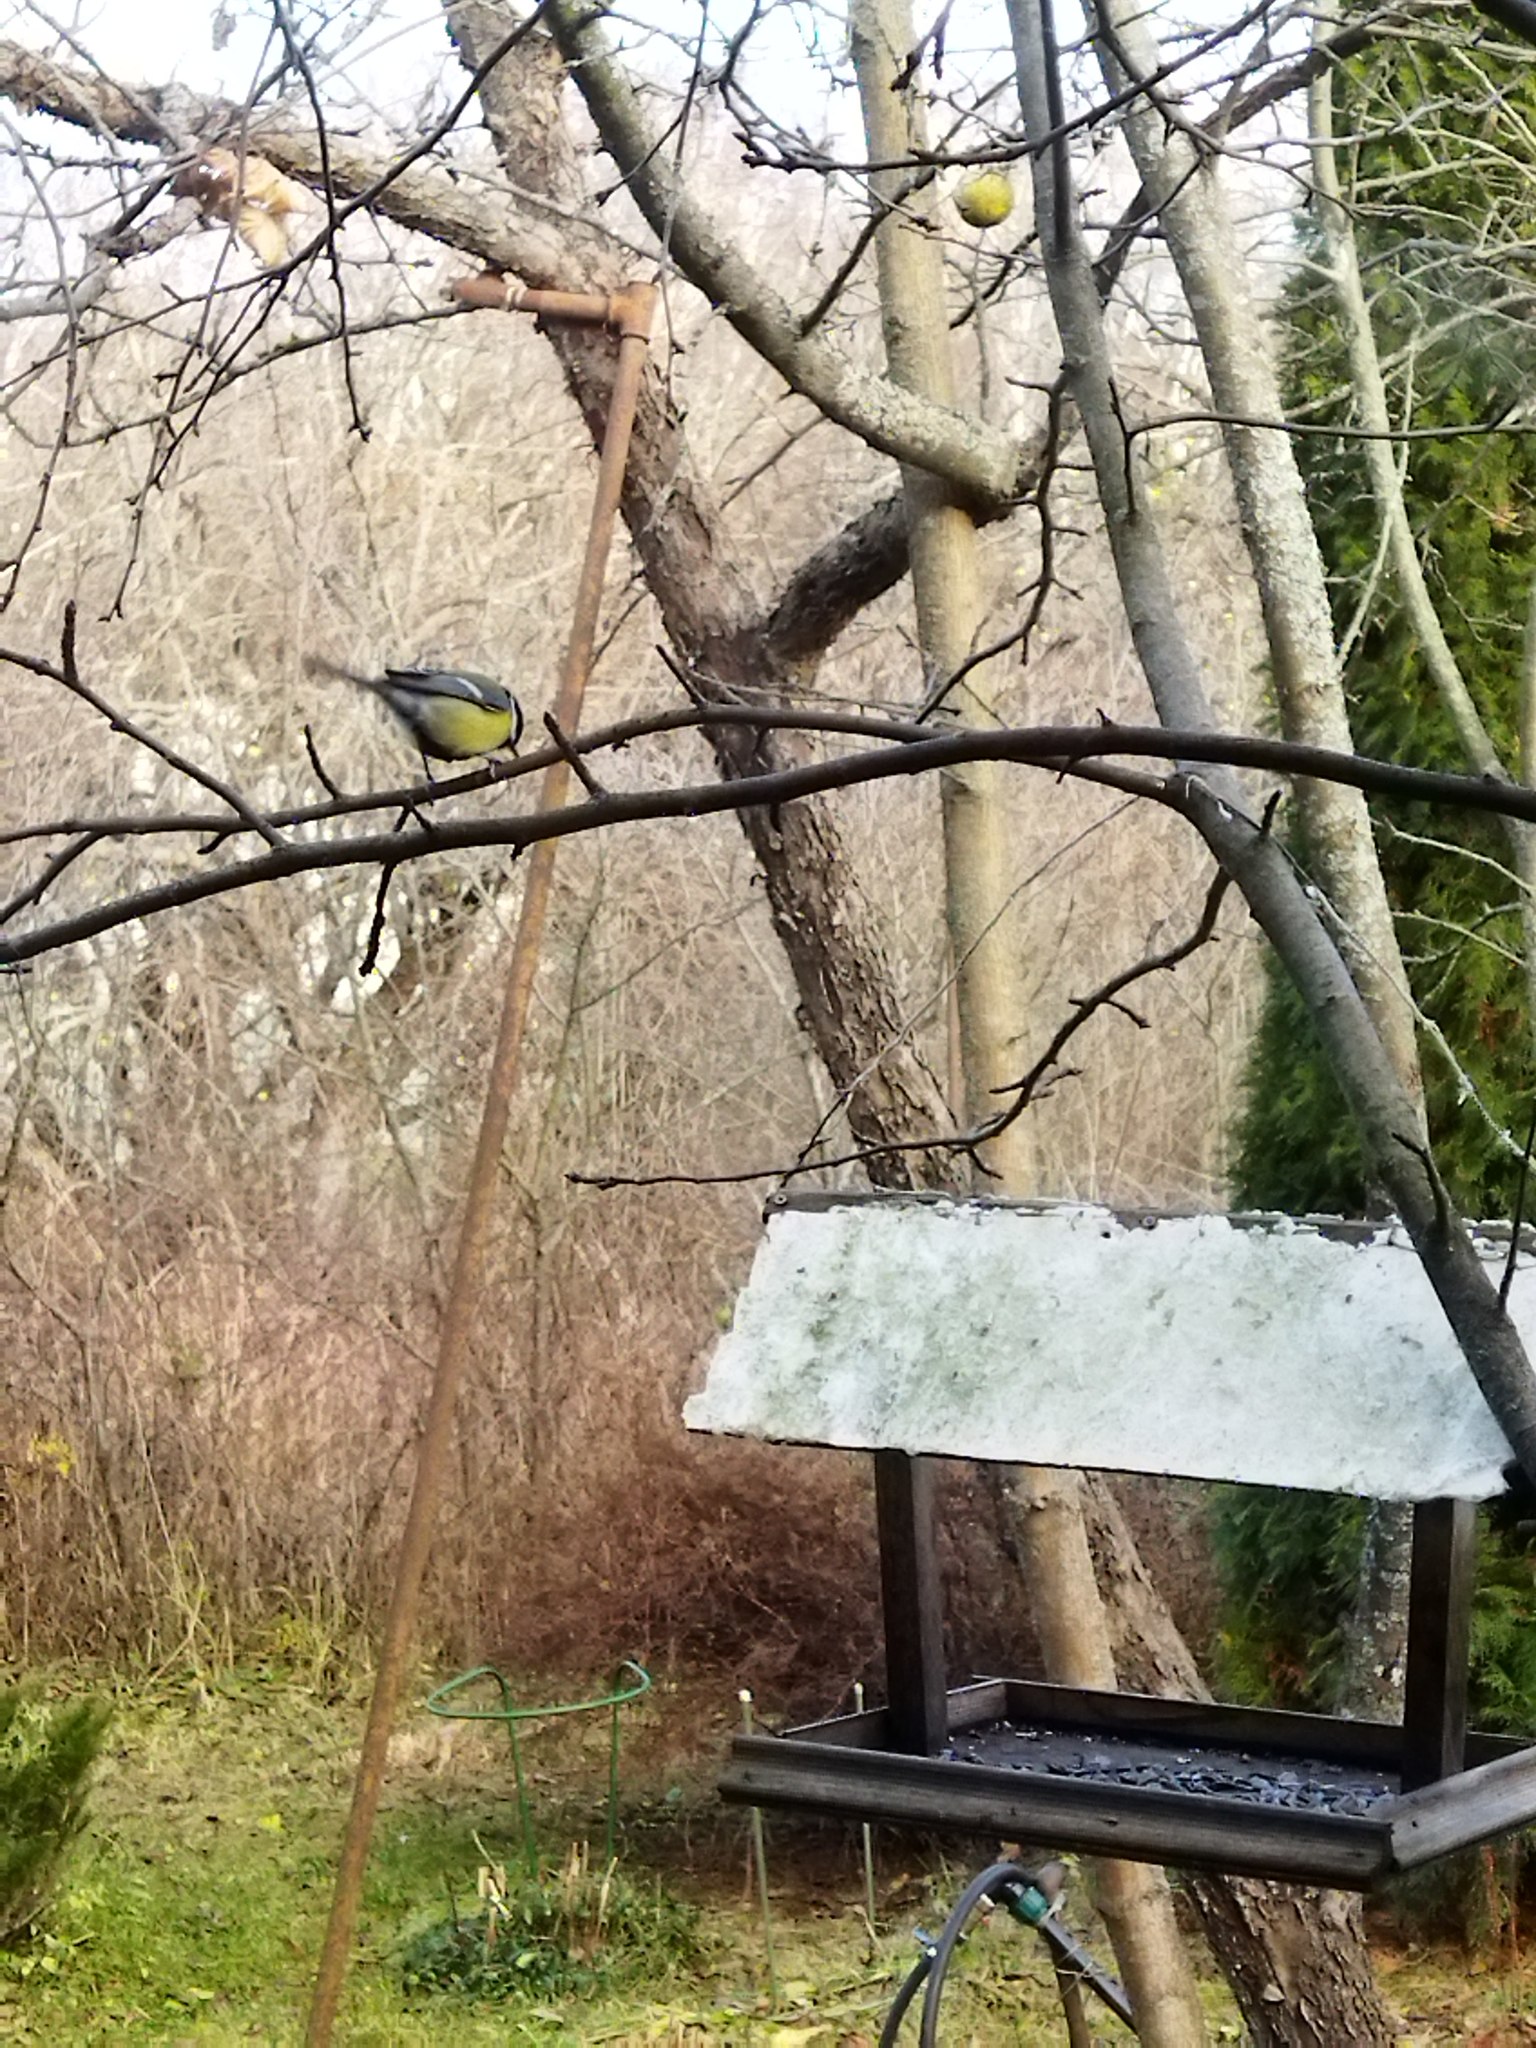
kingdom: Animalia
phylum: Chordata
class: Aves
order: Passeriformes
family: Paridae
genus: Parus
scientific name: Parus major
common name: Great tit
